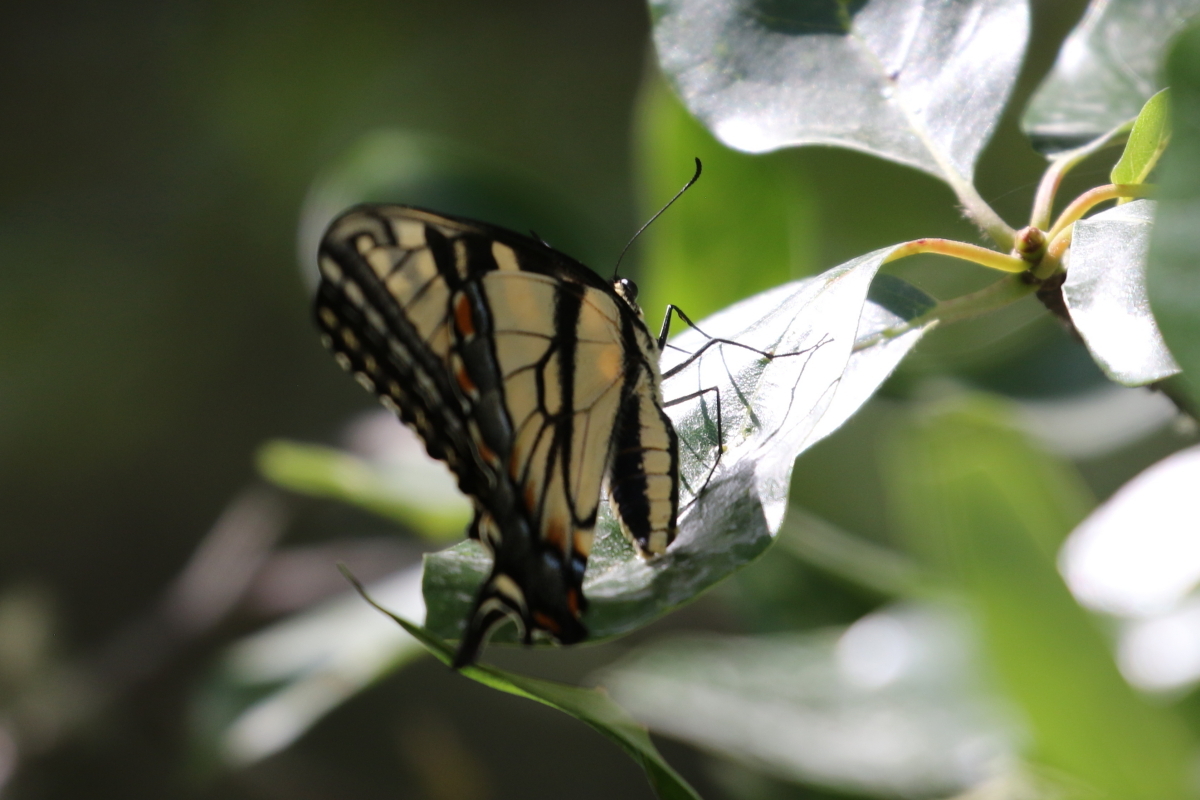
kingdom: Animalia
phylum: Arthropoda
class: Insecta
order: Lepidoptera
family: Papilionidae
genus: Papilio
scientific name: Papilio glaucus
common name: Tiger swallowtail
